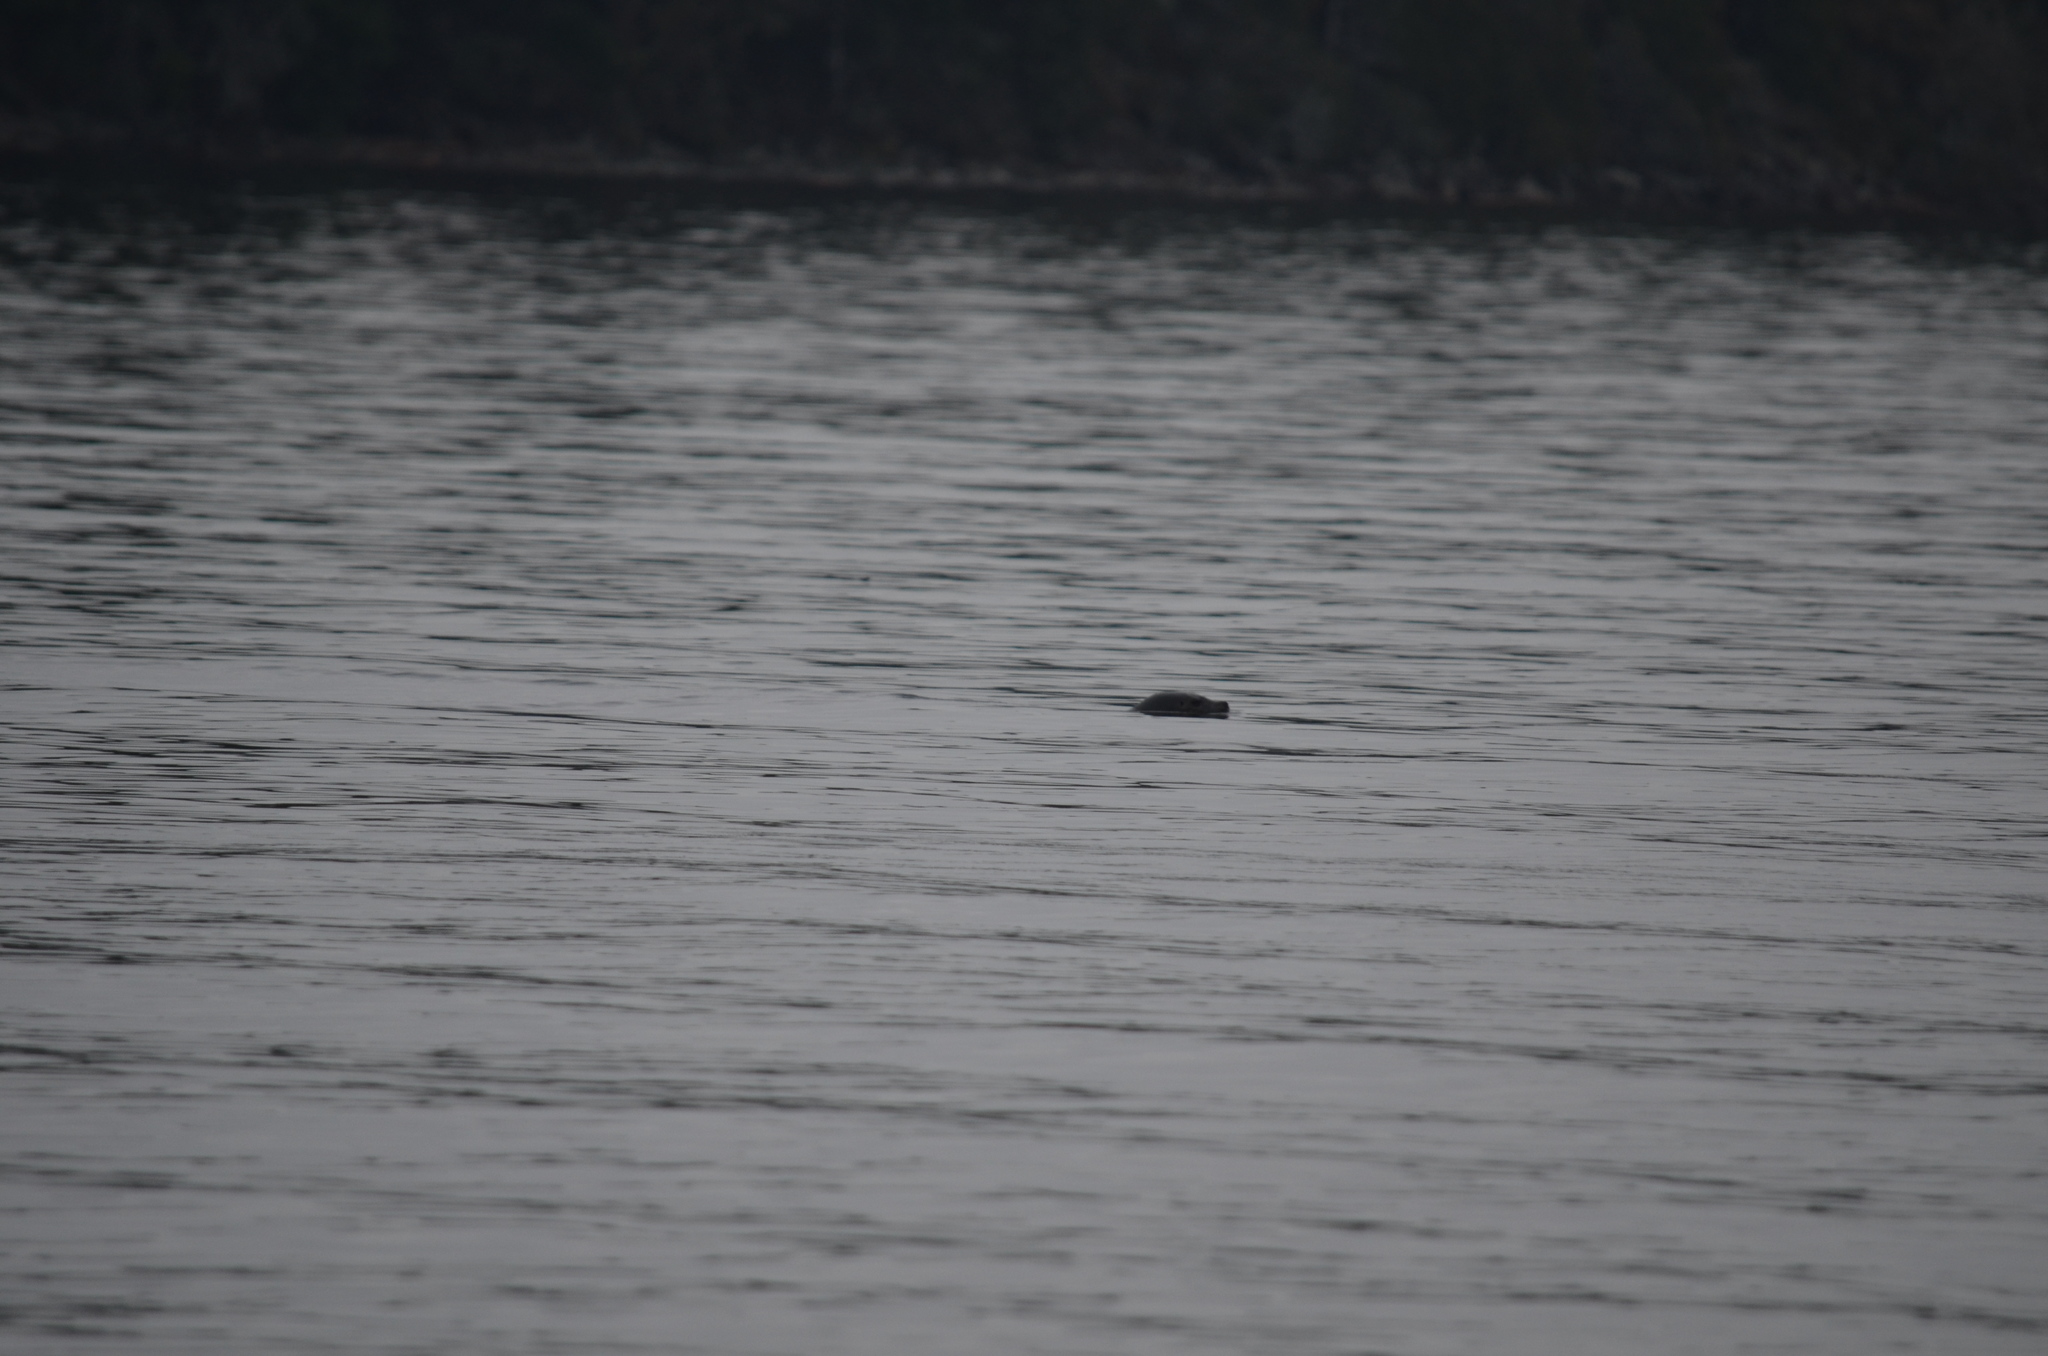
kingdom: Animalia
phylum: Chordata
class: Mammalia
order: Carnivora
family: Phocidae
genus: Phoca
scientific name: Phoca vitulina
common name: Harbor seal
